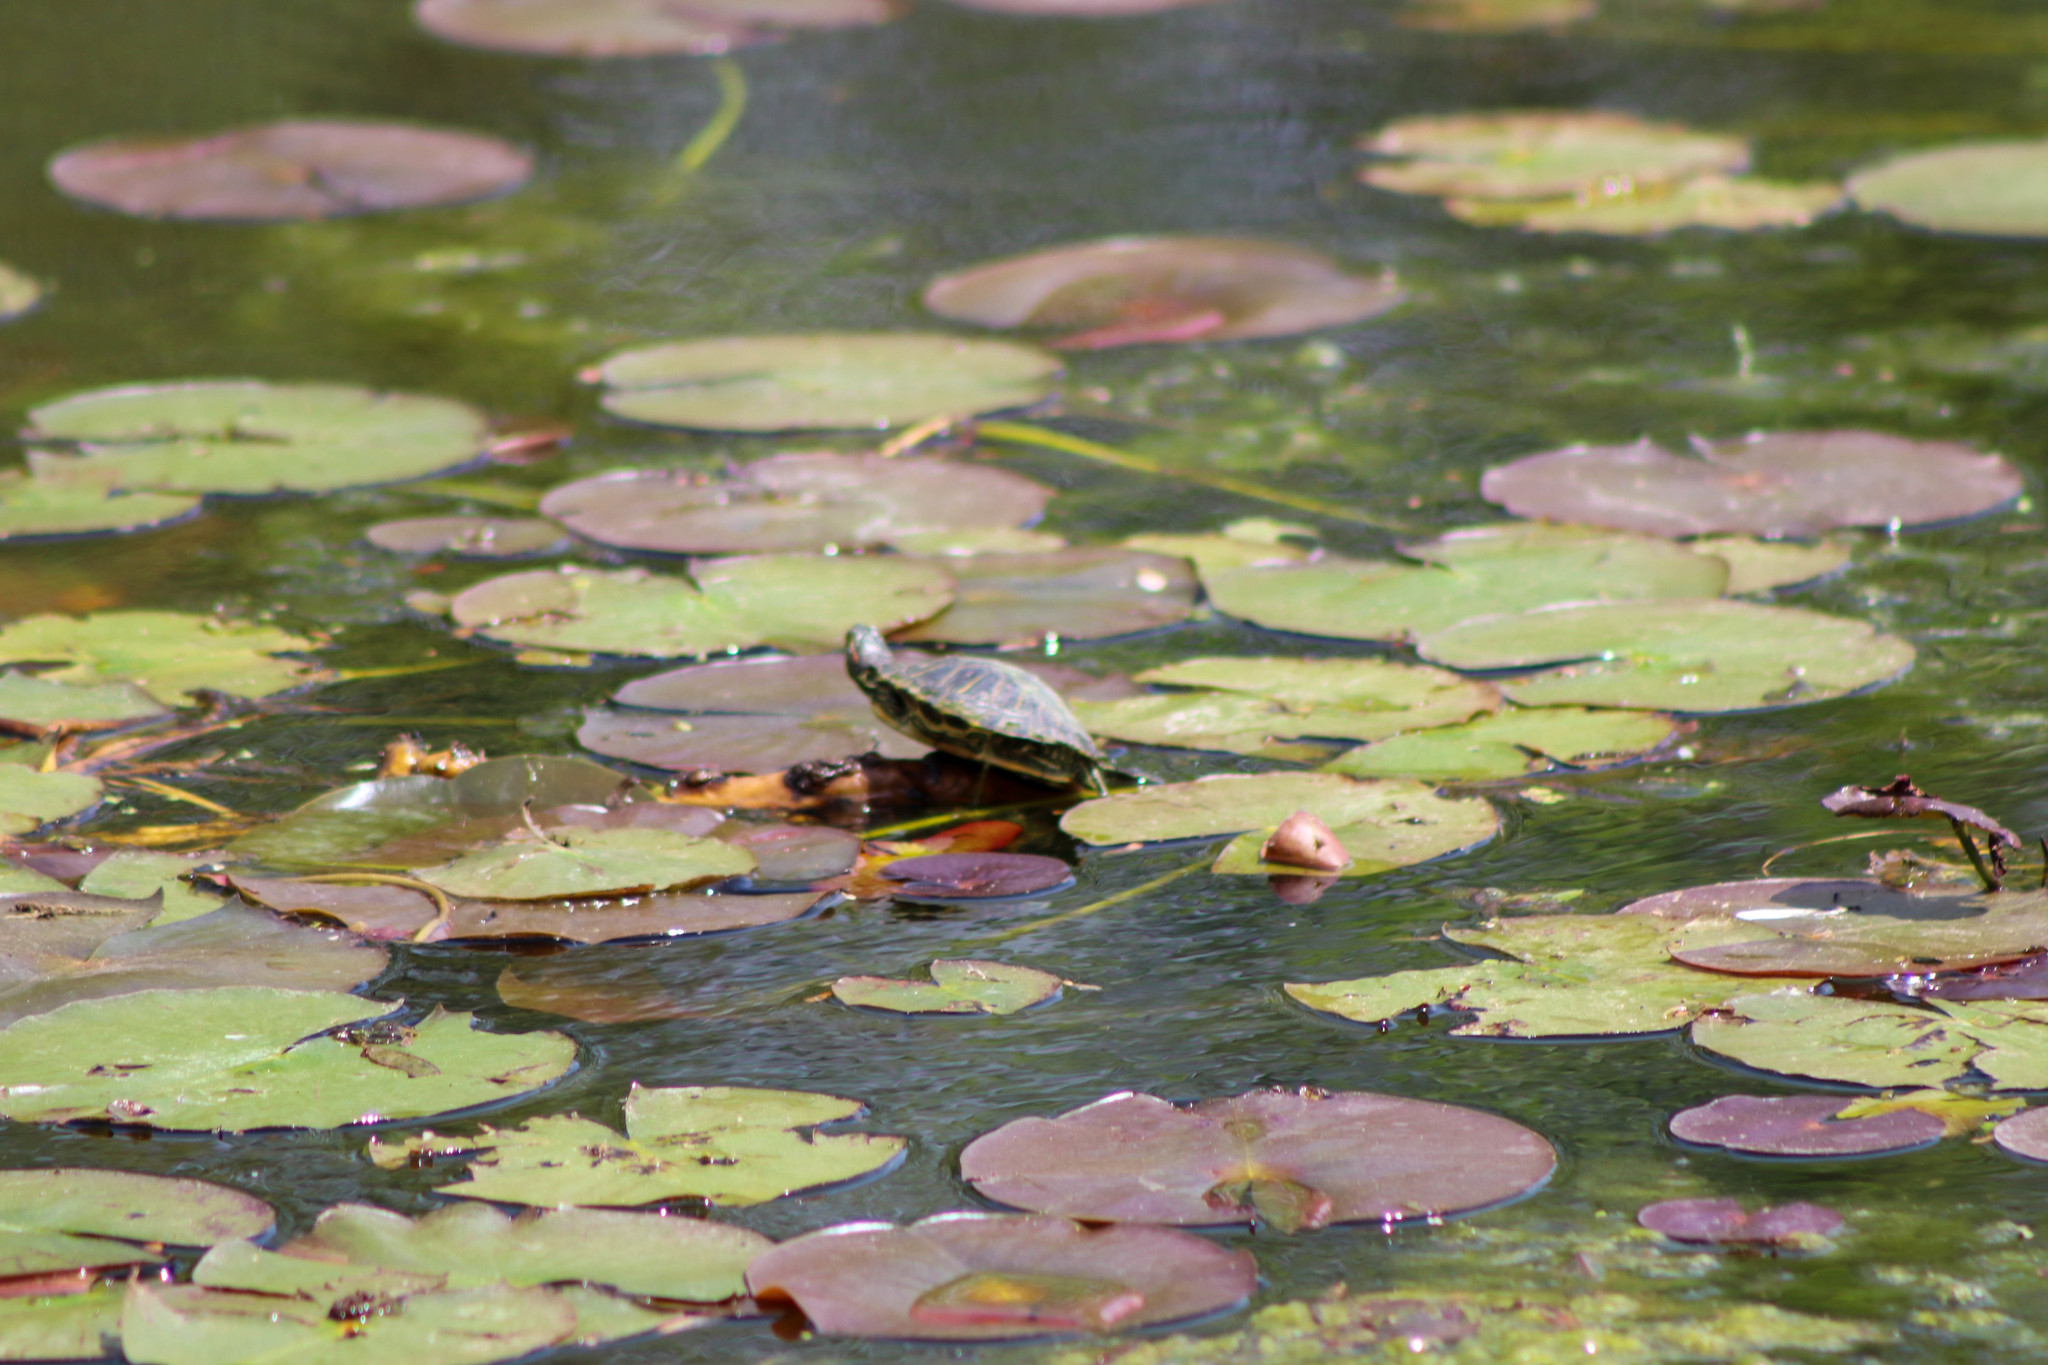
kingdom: Animalia
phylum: Chordata
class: Testudines
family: Emydidae
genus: Trachemys
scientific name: Trachemys scripta
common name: Slider
